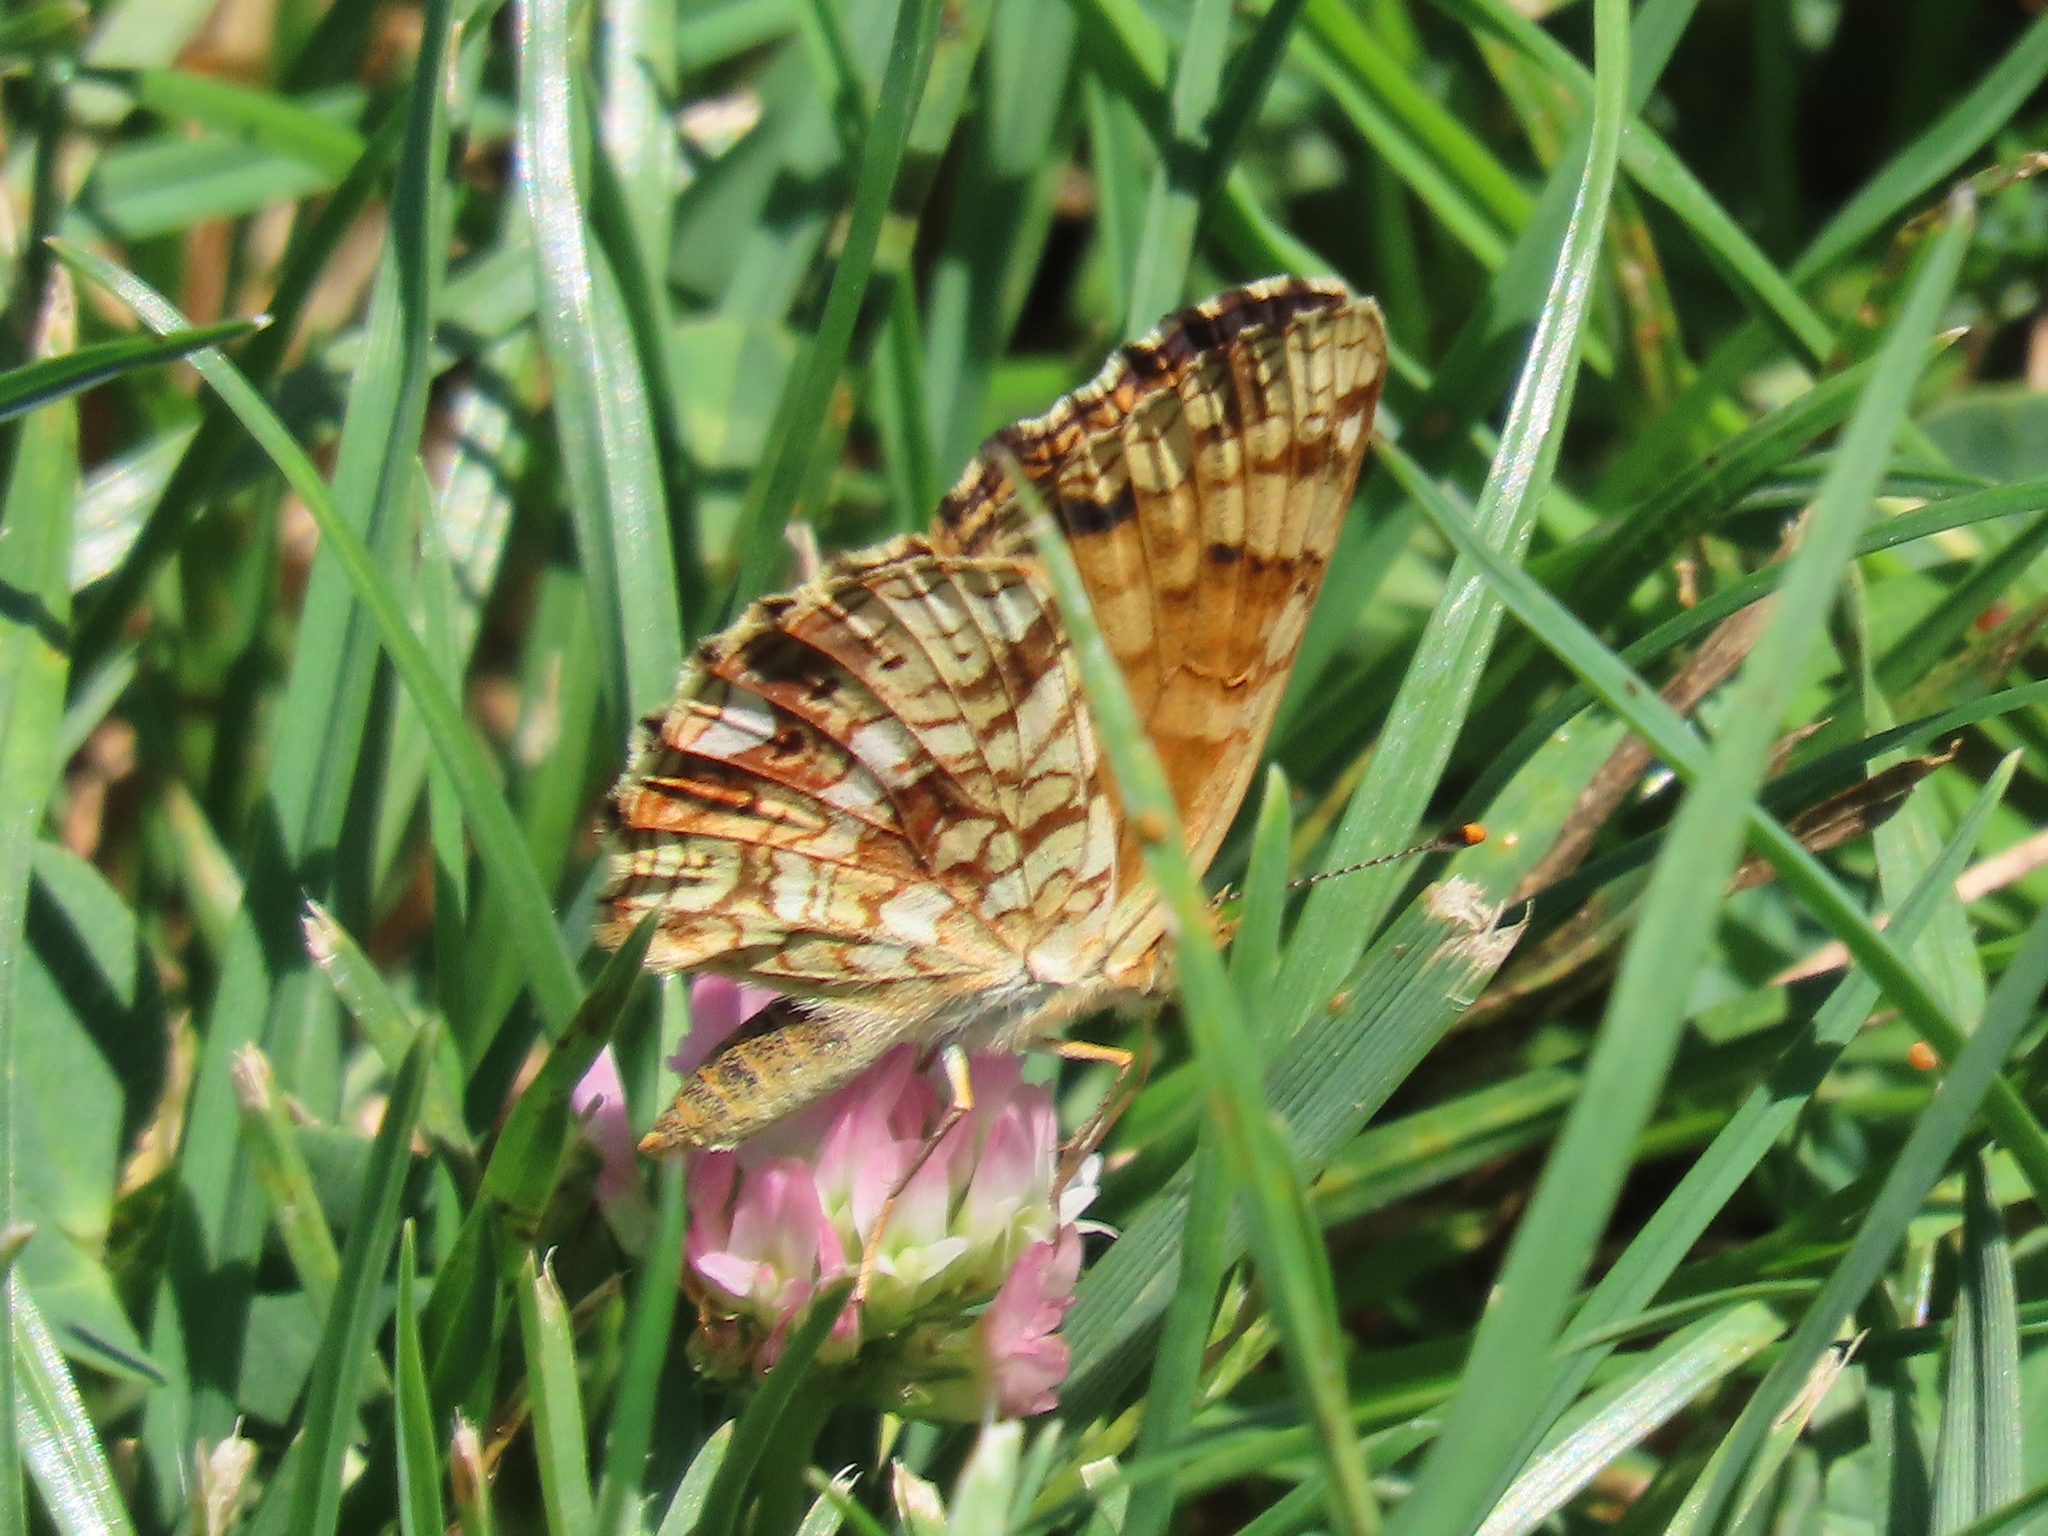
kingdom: Animalia
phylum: Arthropoda
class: Insecta
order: Lepidoptera
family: Nymphalidae
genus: Eresia
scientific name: Eresia aveyrona
